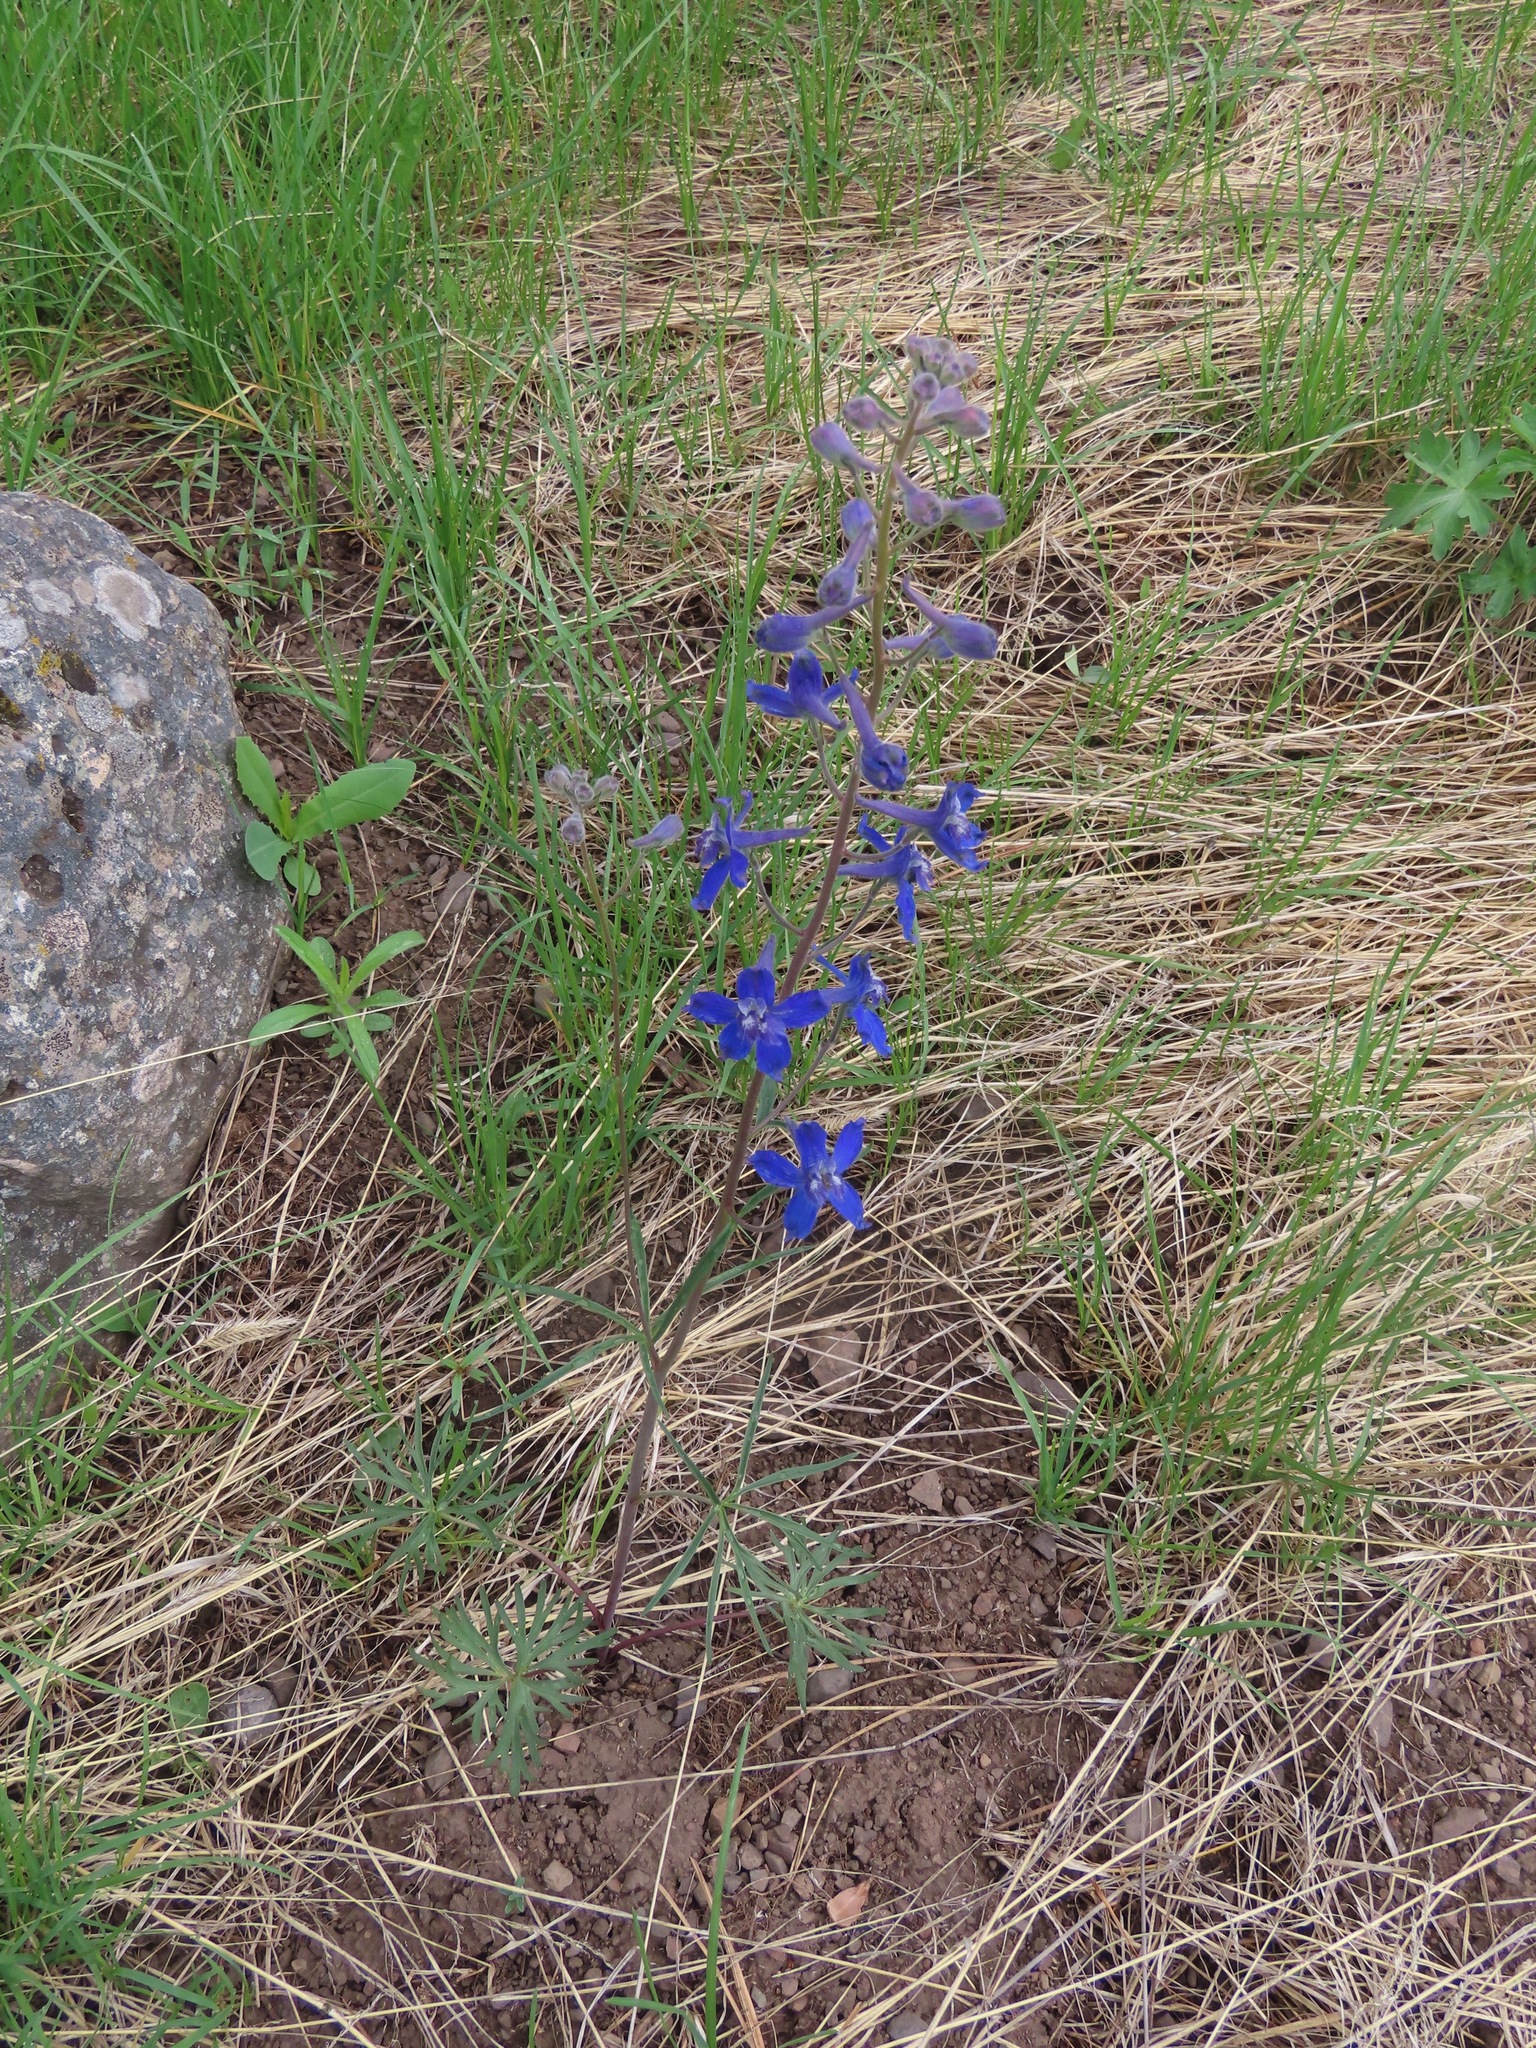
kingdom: Plantae
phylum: Tracheophyta
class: Magnoliopsida
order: Ranunculales
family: Ranunculaceae
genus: Delphinium
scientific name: Delphinium nuttallianum
